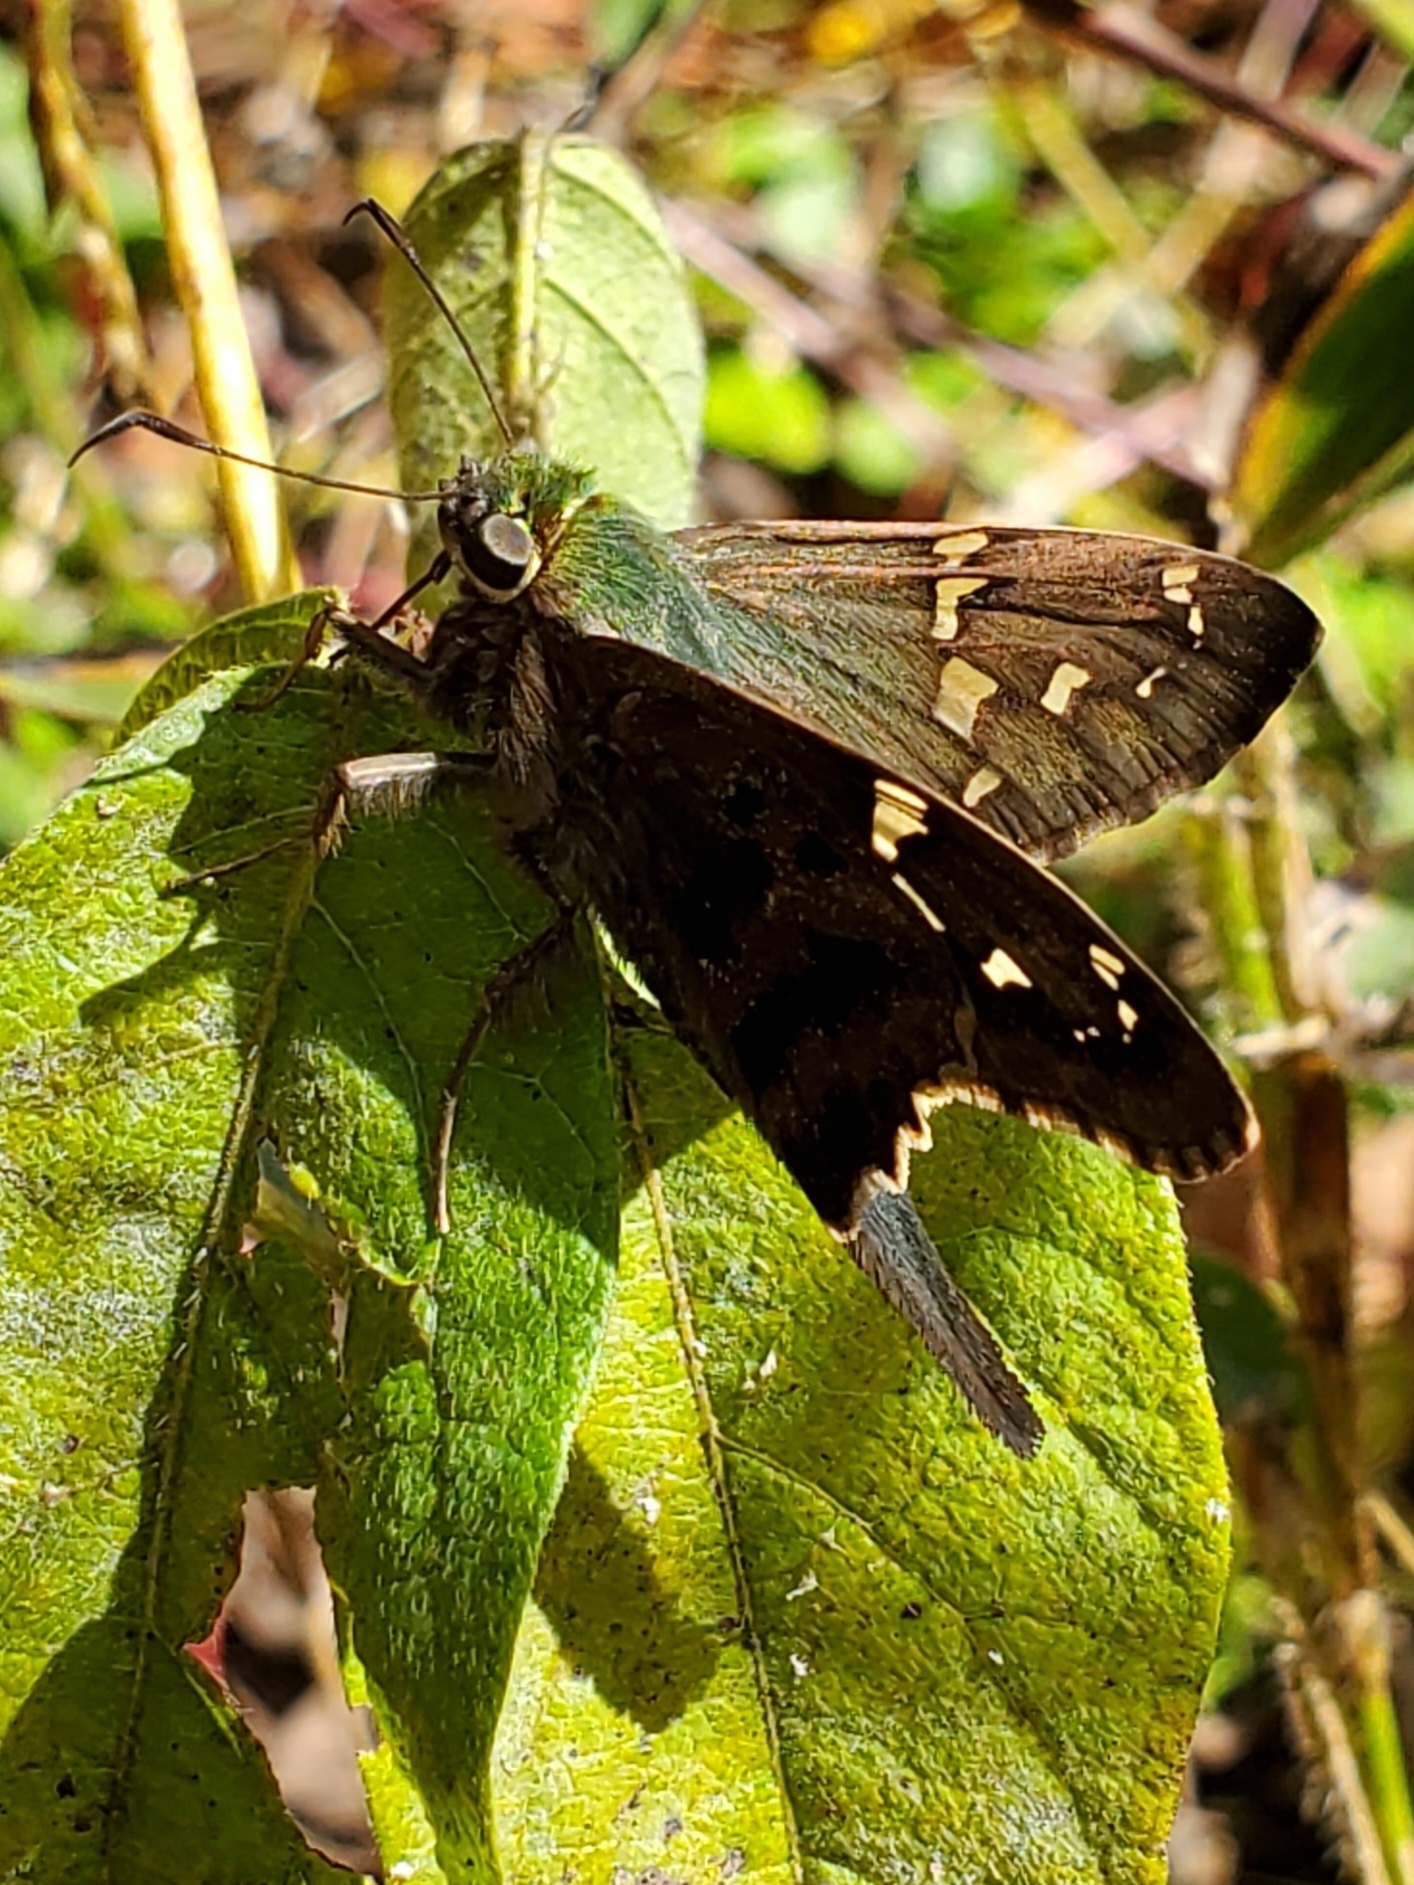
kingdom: Animalia
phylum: Arthropoda
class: Insecta
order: Lepidoptera
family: Hesperiidae
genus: Urbanus
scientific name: Urbanus proteus
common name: Long-tailed skipper
